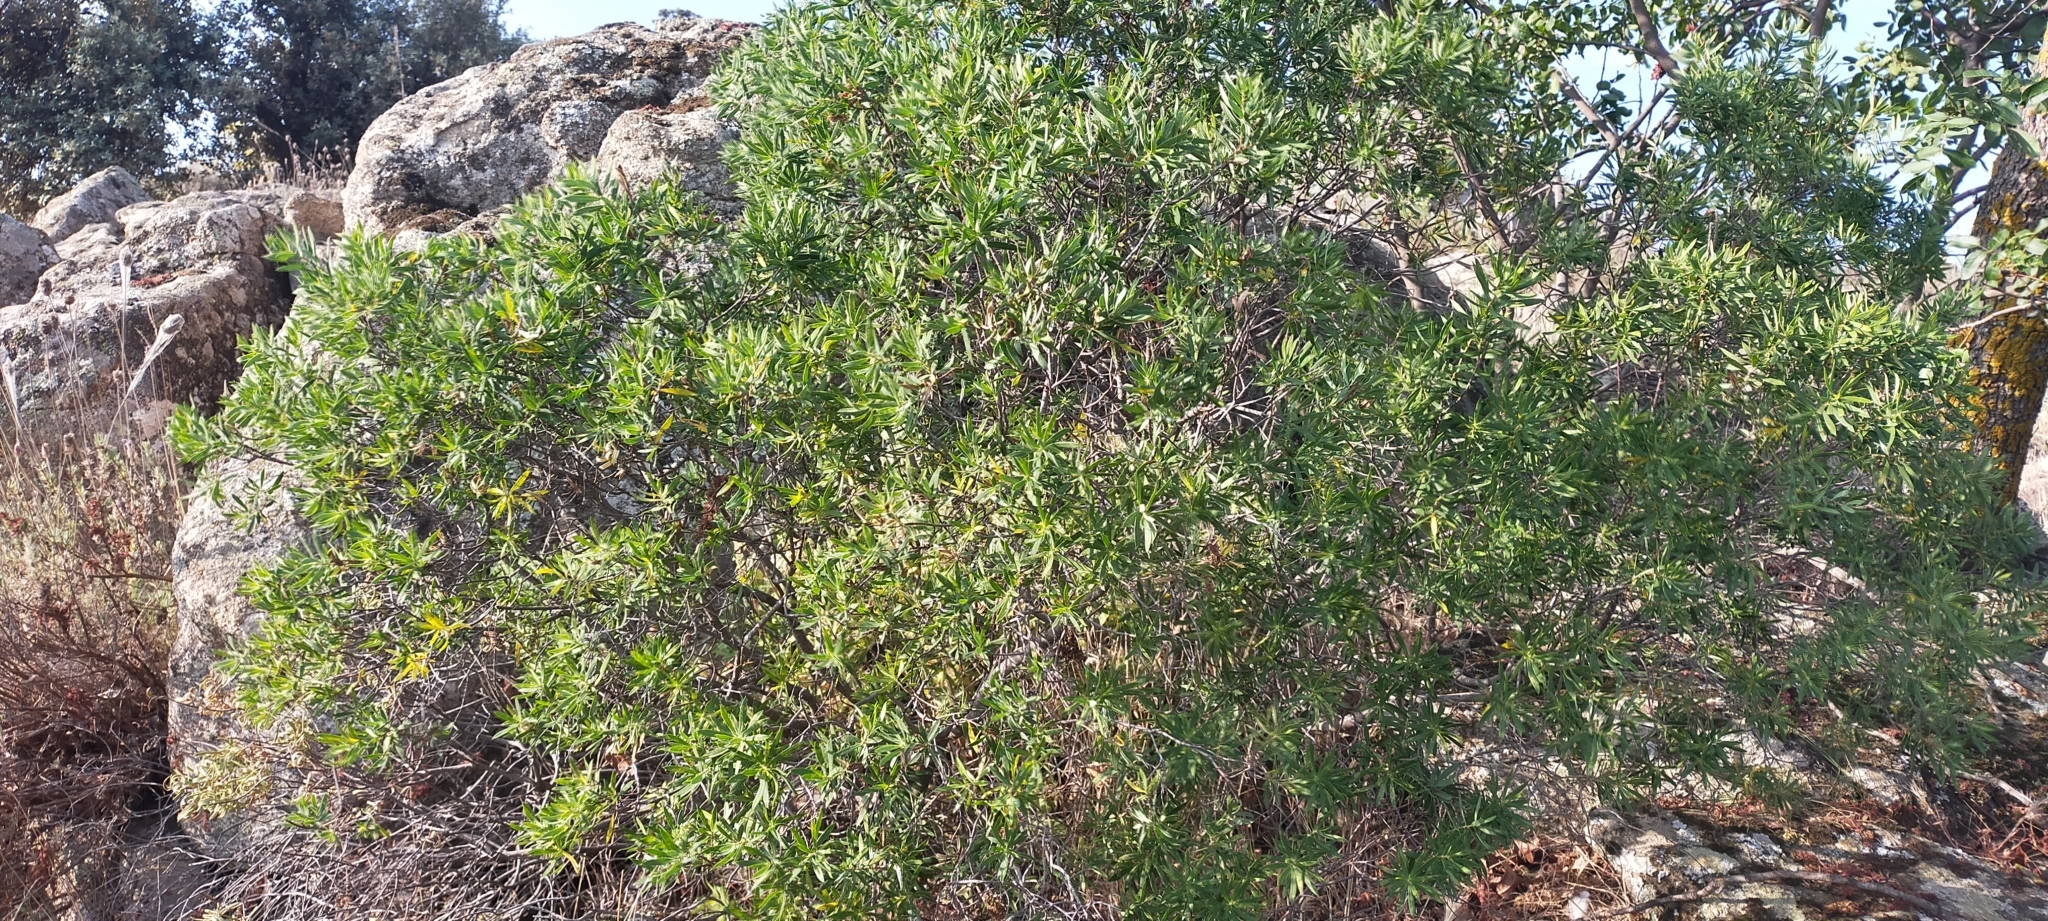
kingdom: Plantae
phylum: Tracheophyta
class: Magnoliopsida
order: Malvales
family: Thymelaeaceae
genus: Daphne
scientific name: Daphne gnidium
